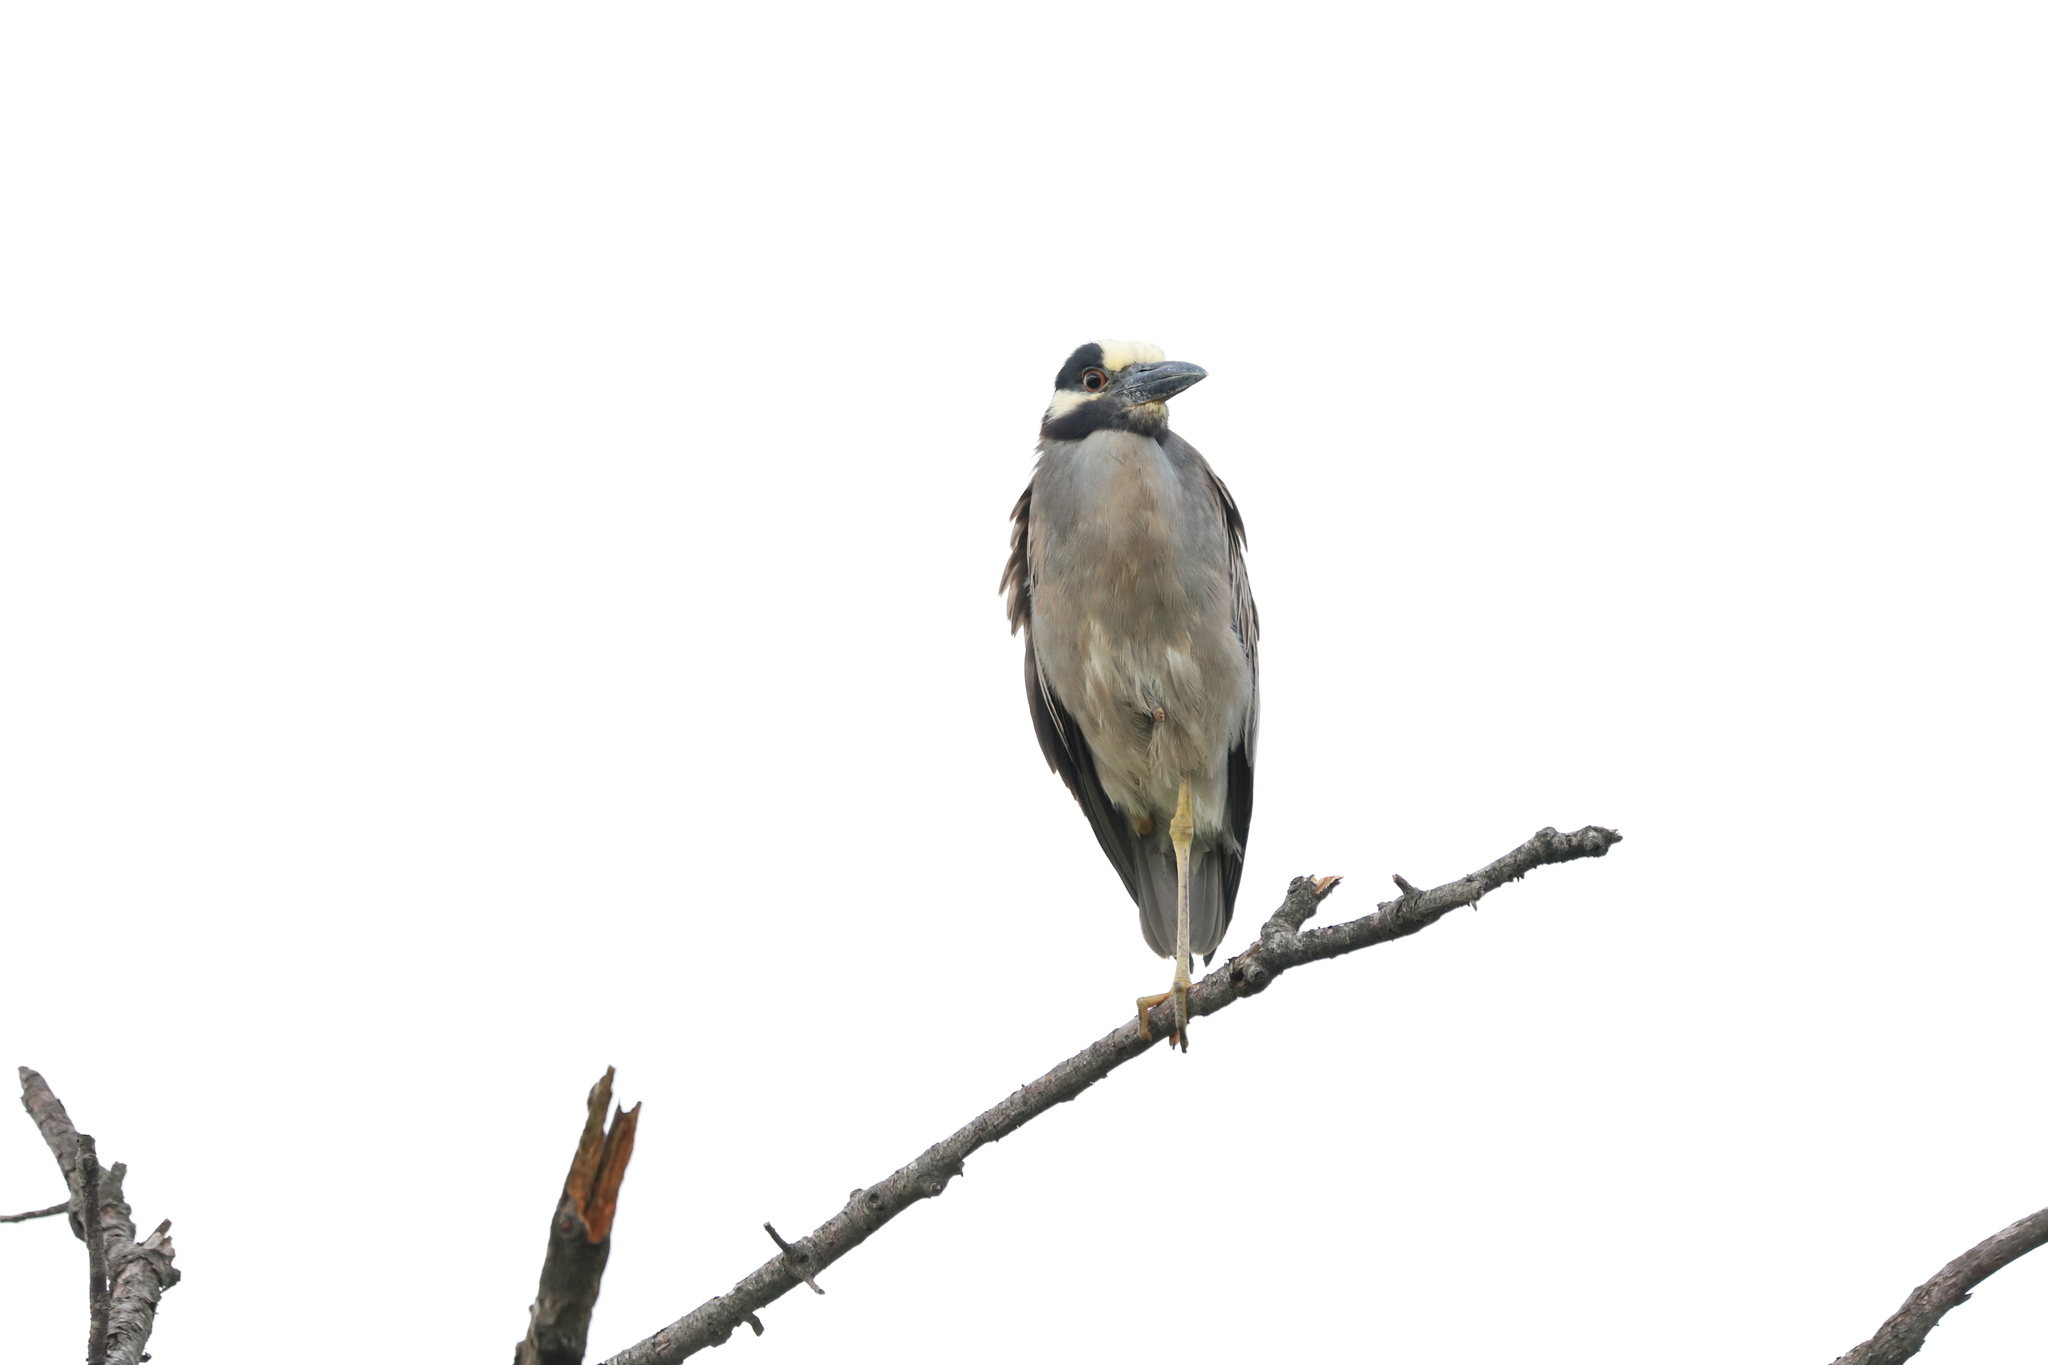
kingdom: Animalia
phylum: Chordata
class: Aves
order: Pelecaniformes
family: Ardeidae
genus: Nyctanassa
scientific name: Nyctanassa violacea
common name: Yellow-crowned night heron
